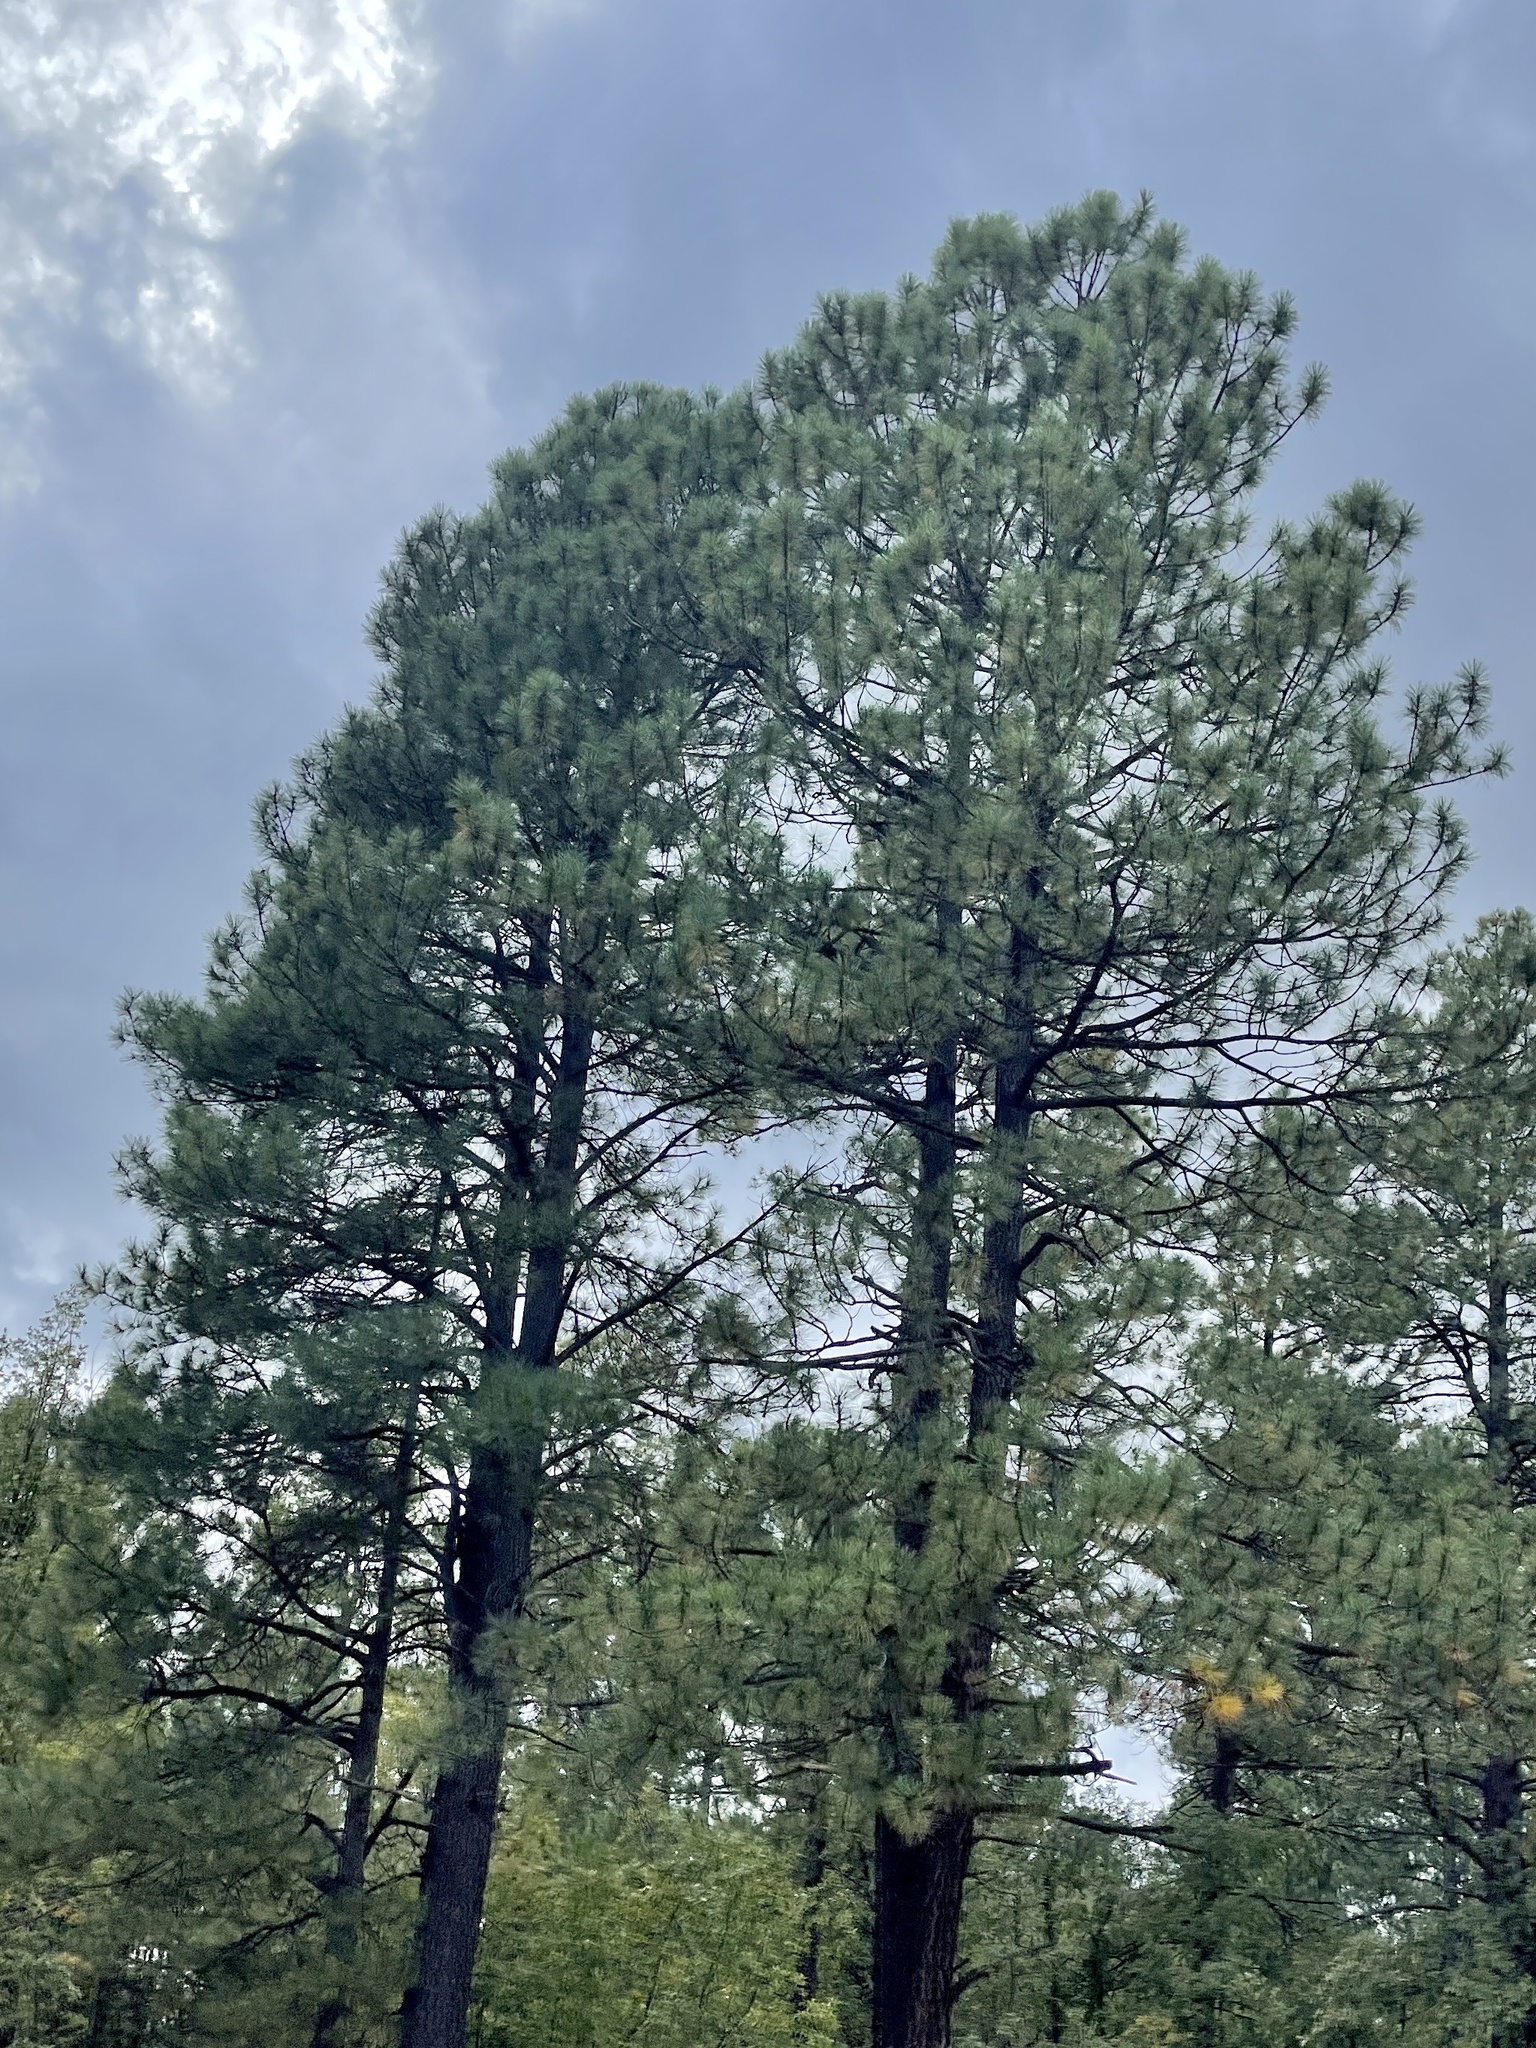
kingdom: Plantae
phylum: Tracheophyta
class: Pinopsida
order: Pinales
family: Pinaceae
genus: Pinus
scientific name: Pinus ponderosa
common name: Western yellow-pine
